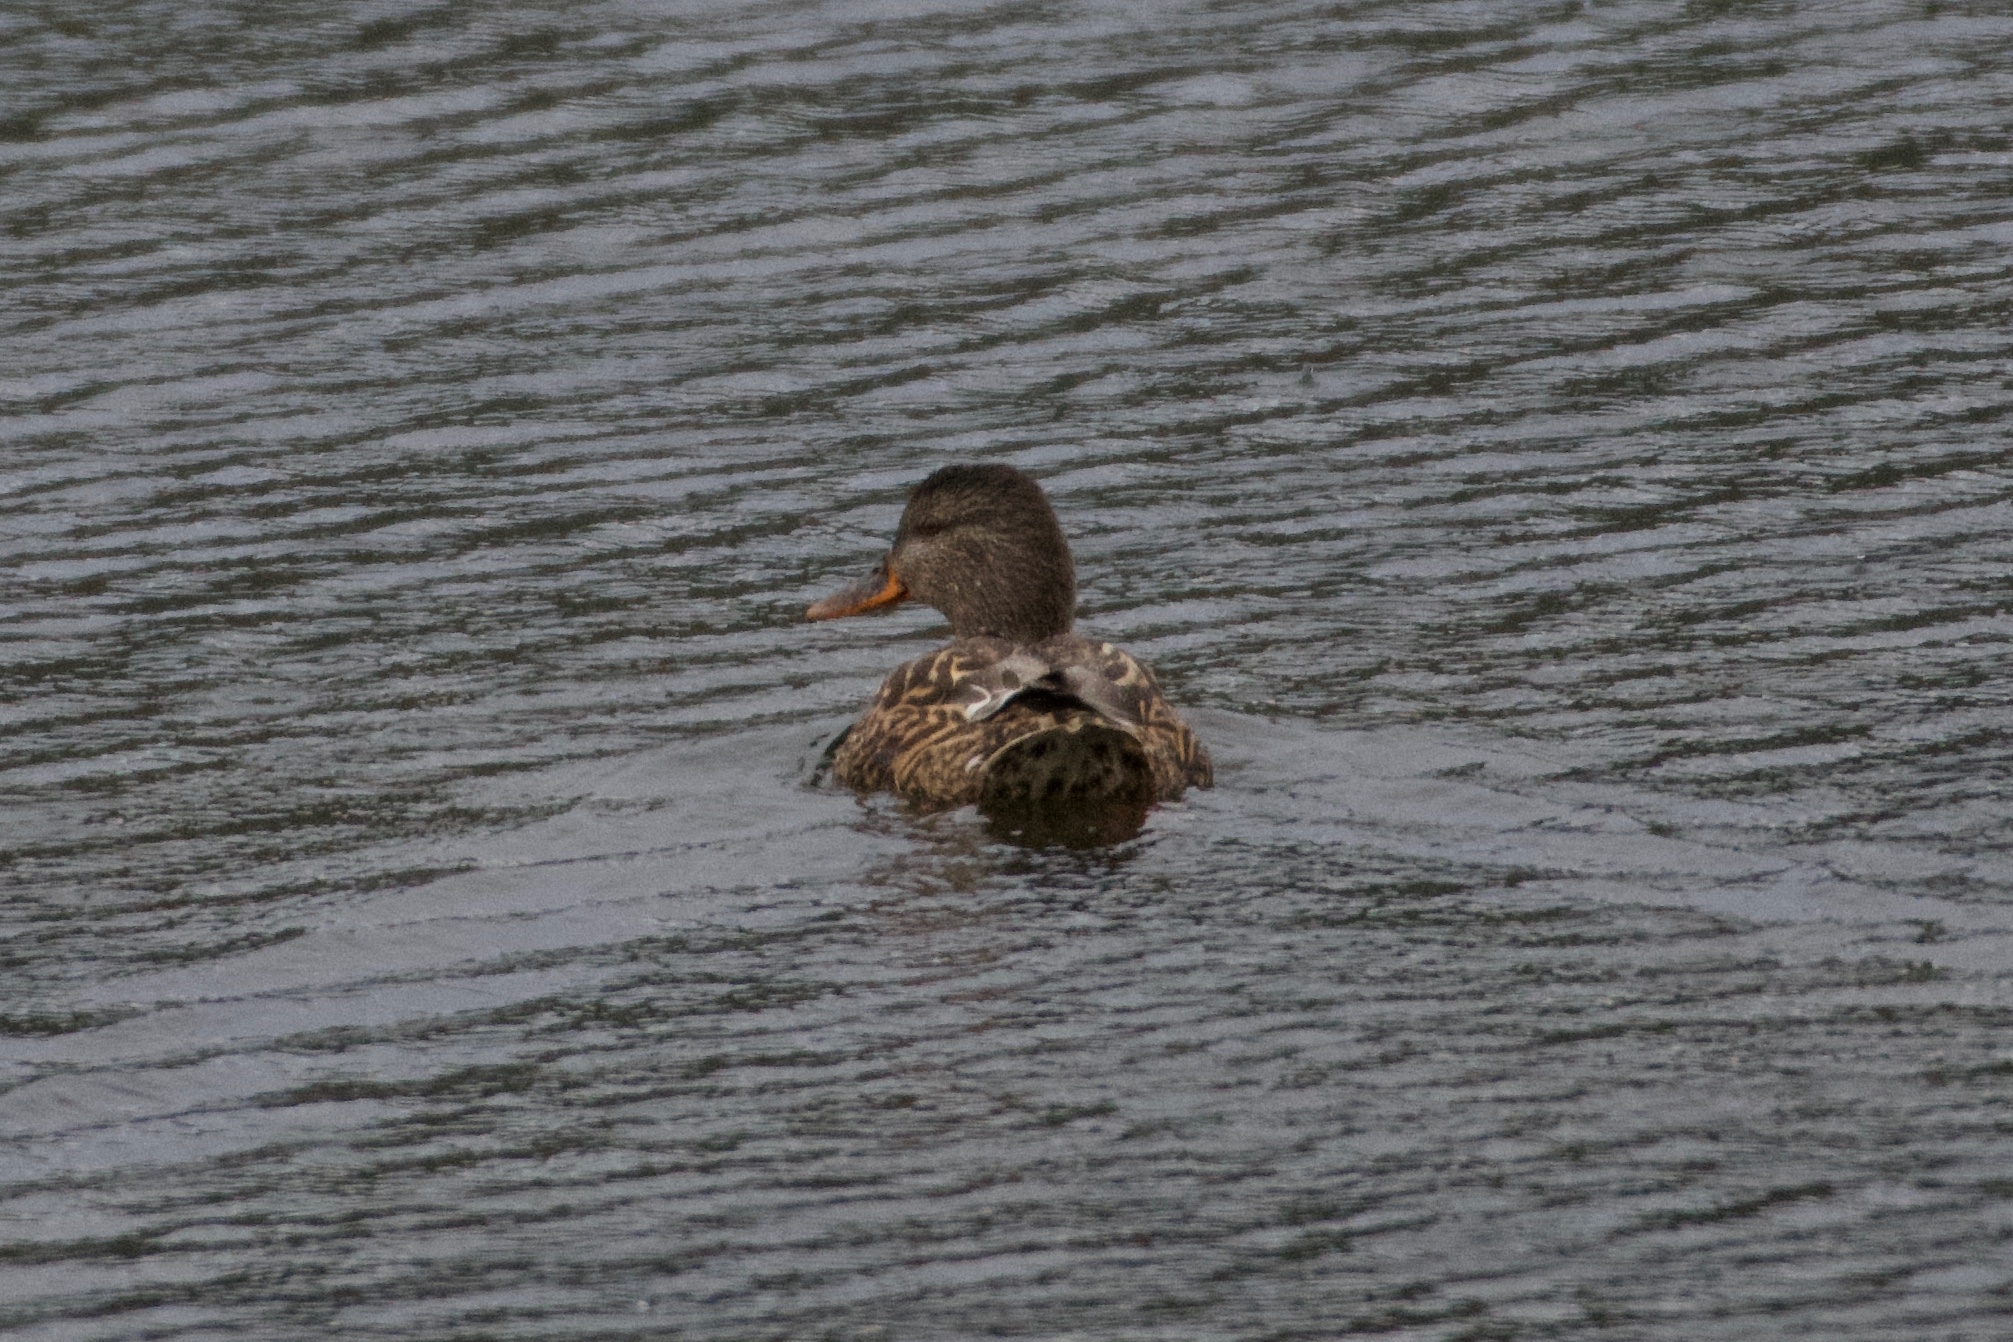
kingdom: Animalia
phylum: Chordata
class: Aves
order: Anseriformes
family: Anatidae
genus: Anas
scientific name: Anas platyrhynchos
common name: Mallard
